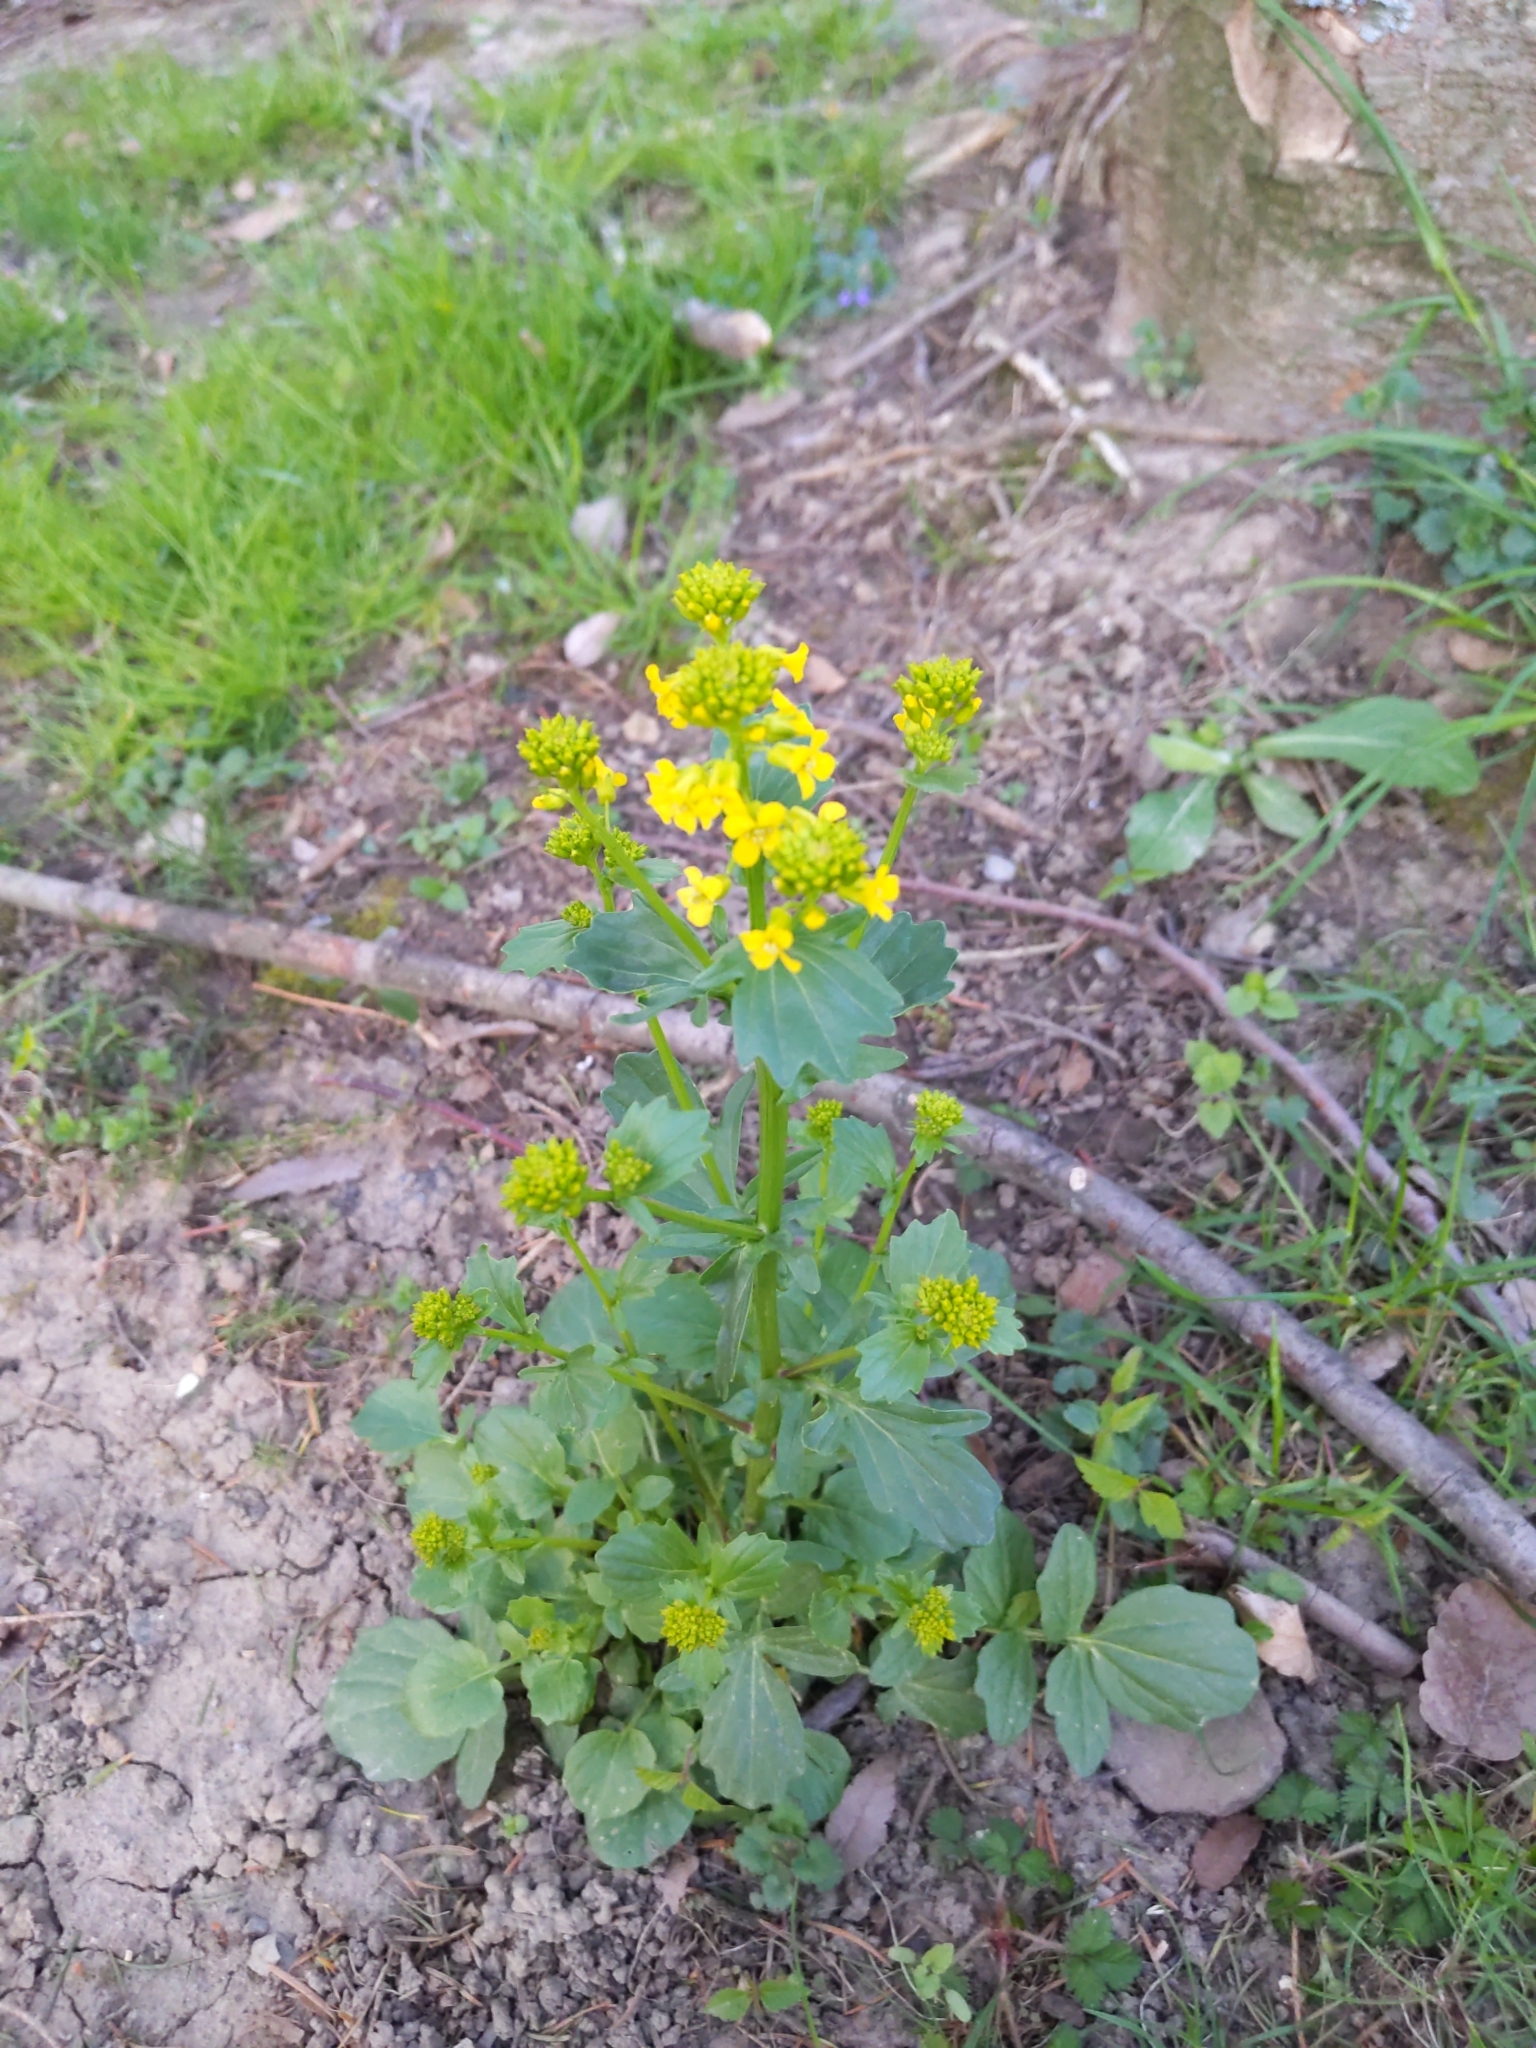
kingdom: Plantae
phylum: Tracheophyta
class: Magnoliopsida
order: Brassicales
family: Brassicaceae
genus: Barbarea
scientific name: Barbarea vulgaris
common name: Cressy-greens
